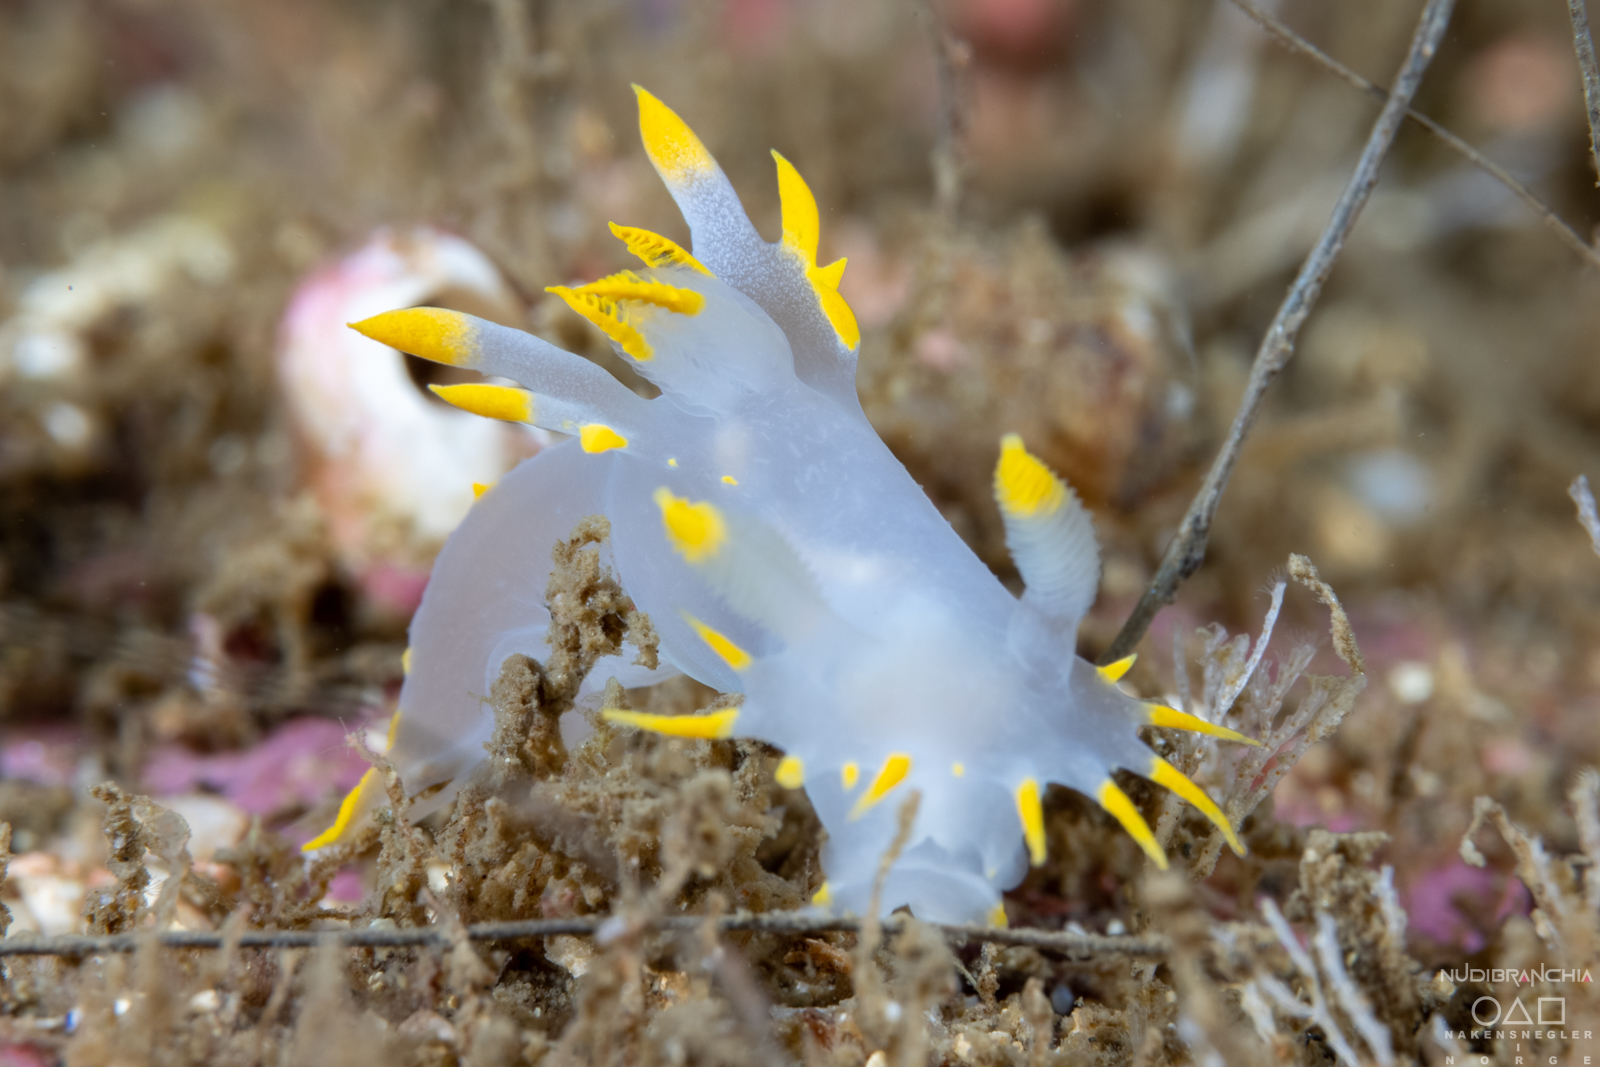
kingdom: Animalia
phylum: Mollusca
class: Gastropoda
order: Nudibranchia
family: Polyceridae
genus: Polycera
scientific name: Polycera faeroensis
